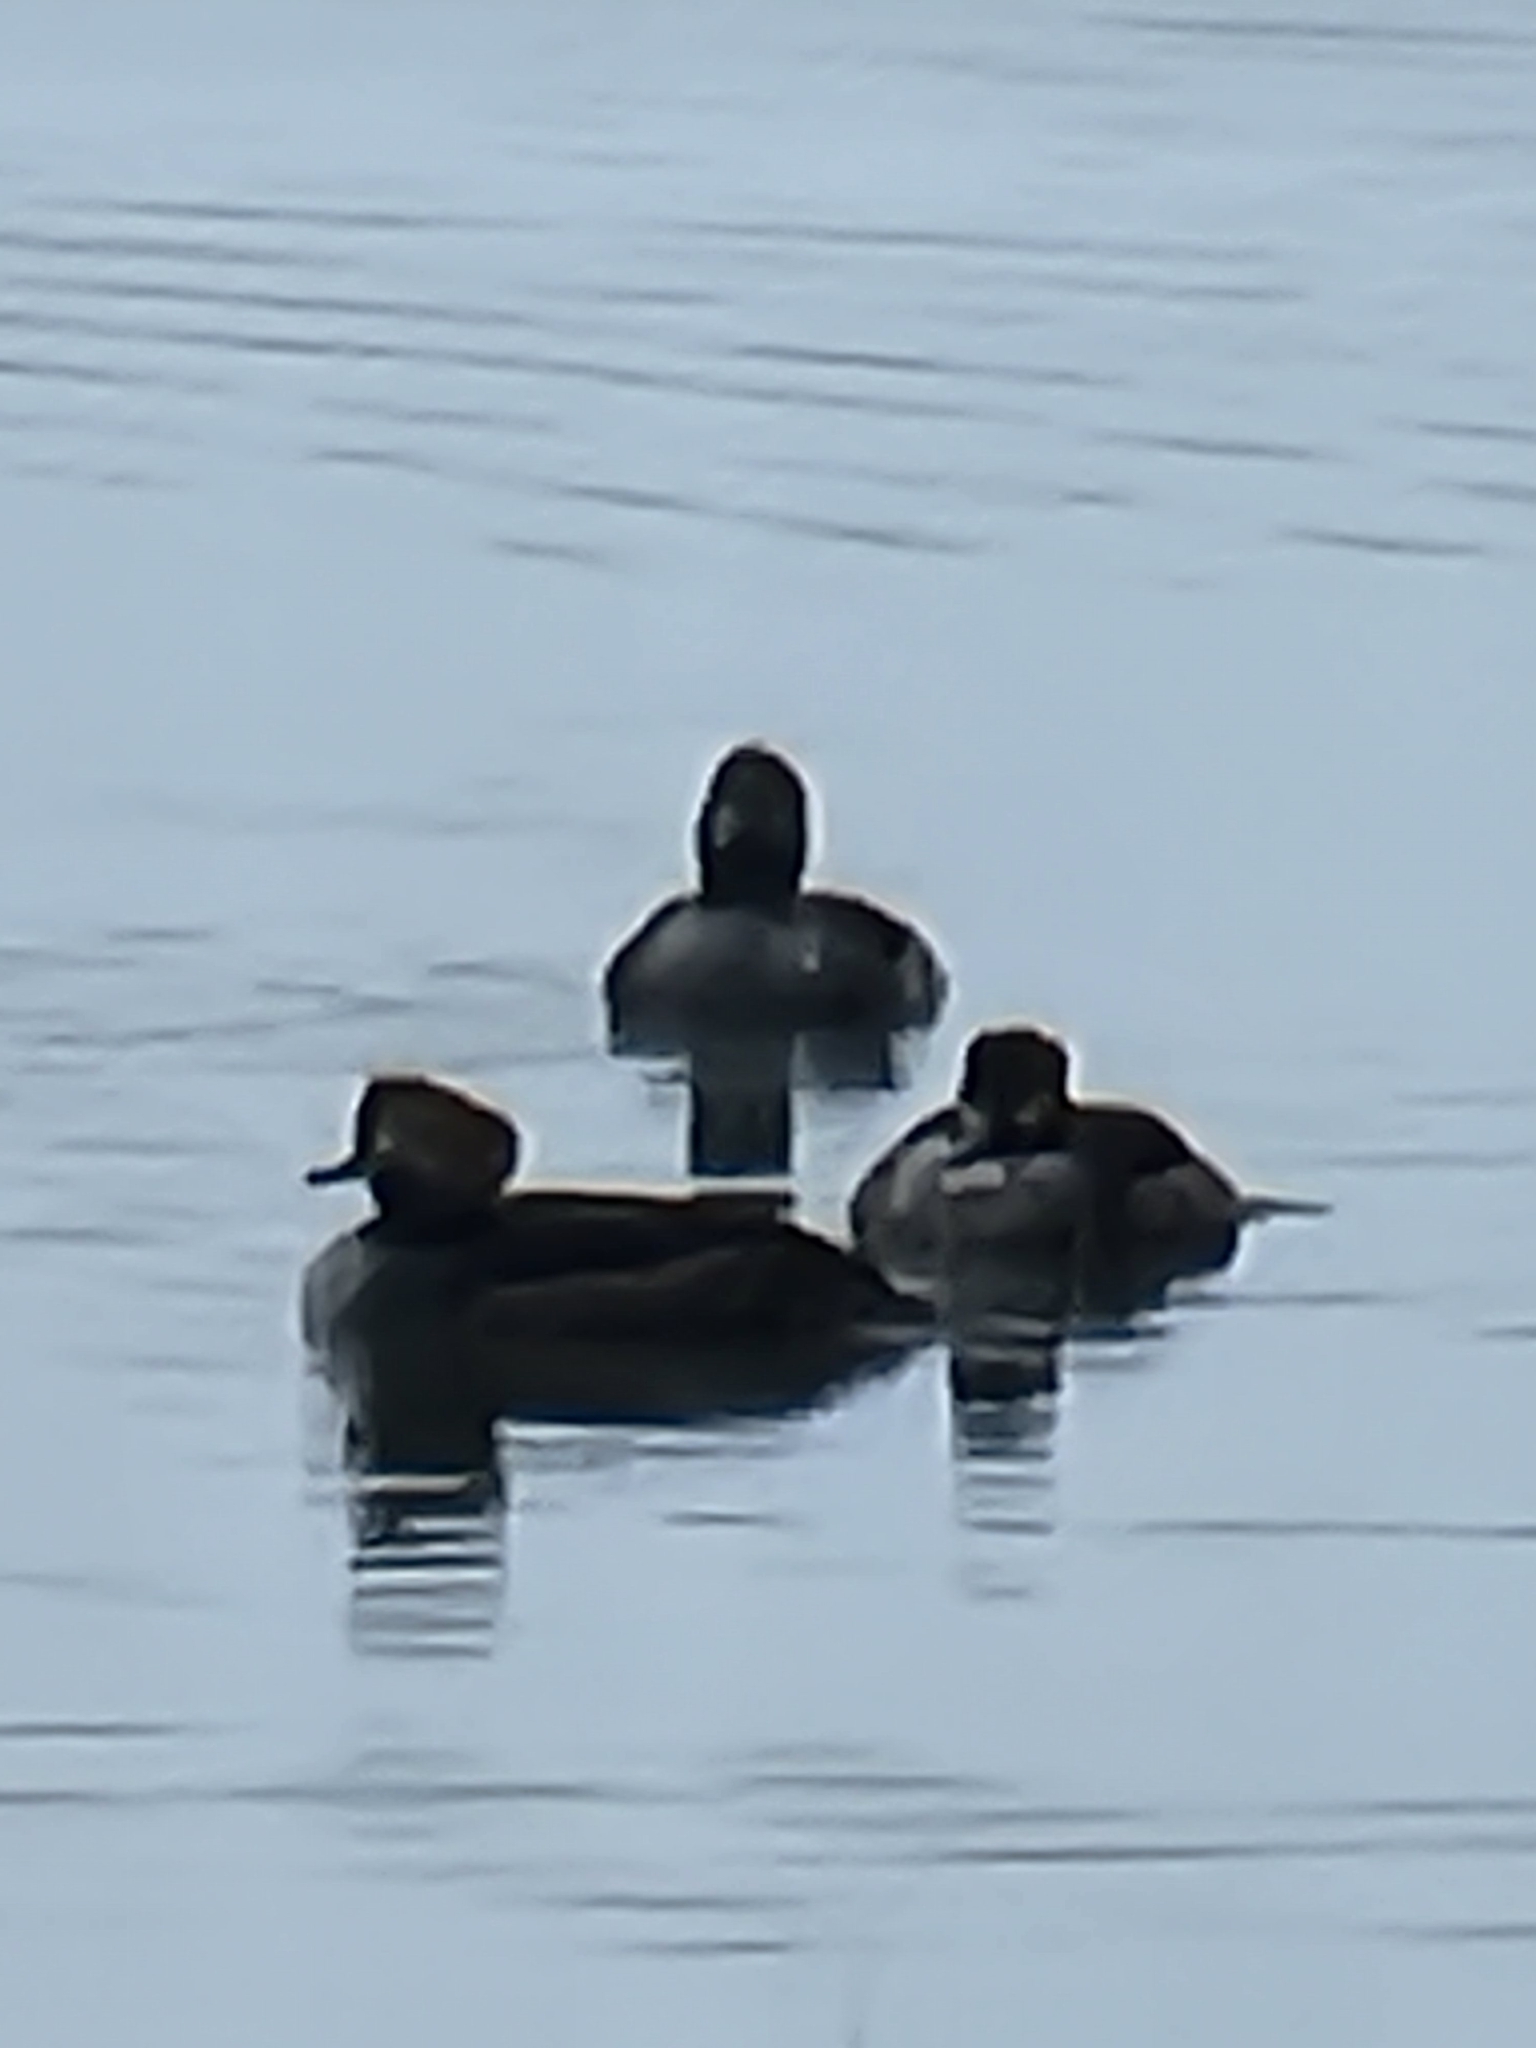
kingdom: Animalia
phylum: Chordata
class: Aves
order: Anseriformes
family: Anatidae
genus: Lophodytes
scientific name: Lophodytes cucullatus
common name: Hooded merganser
